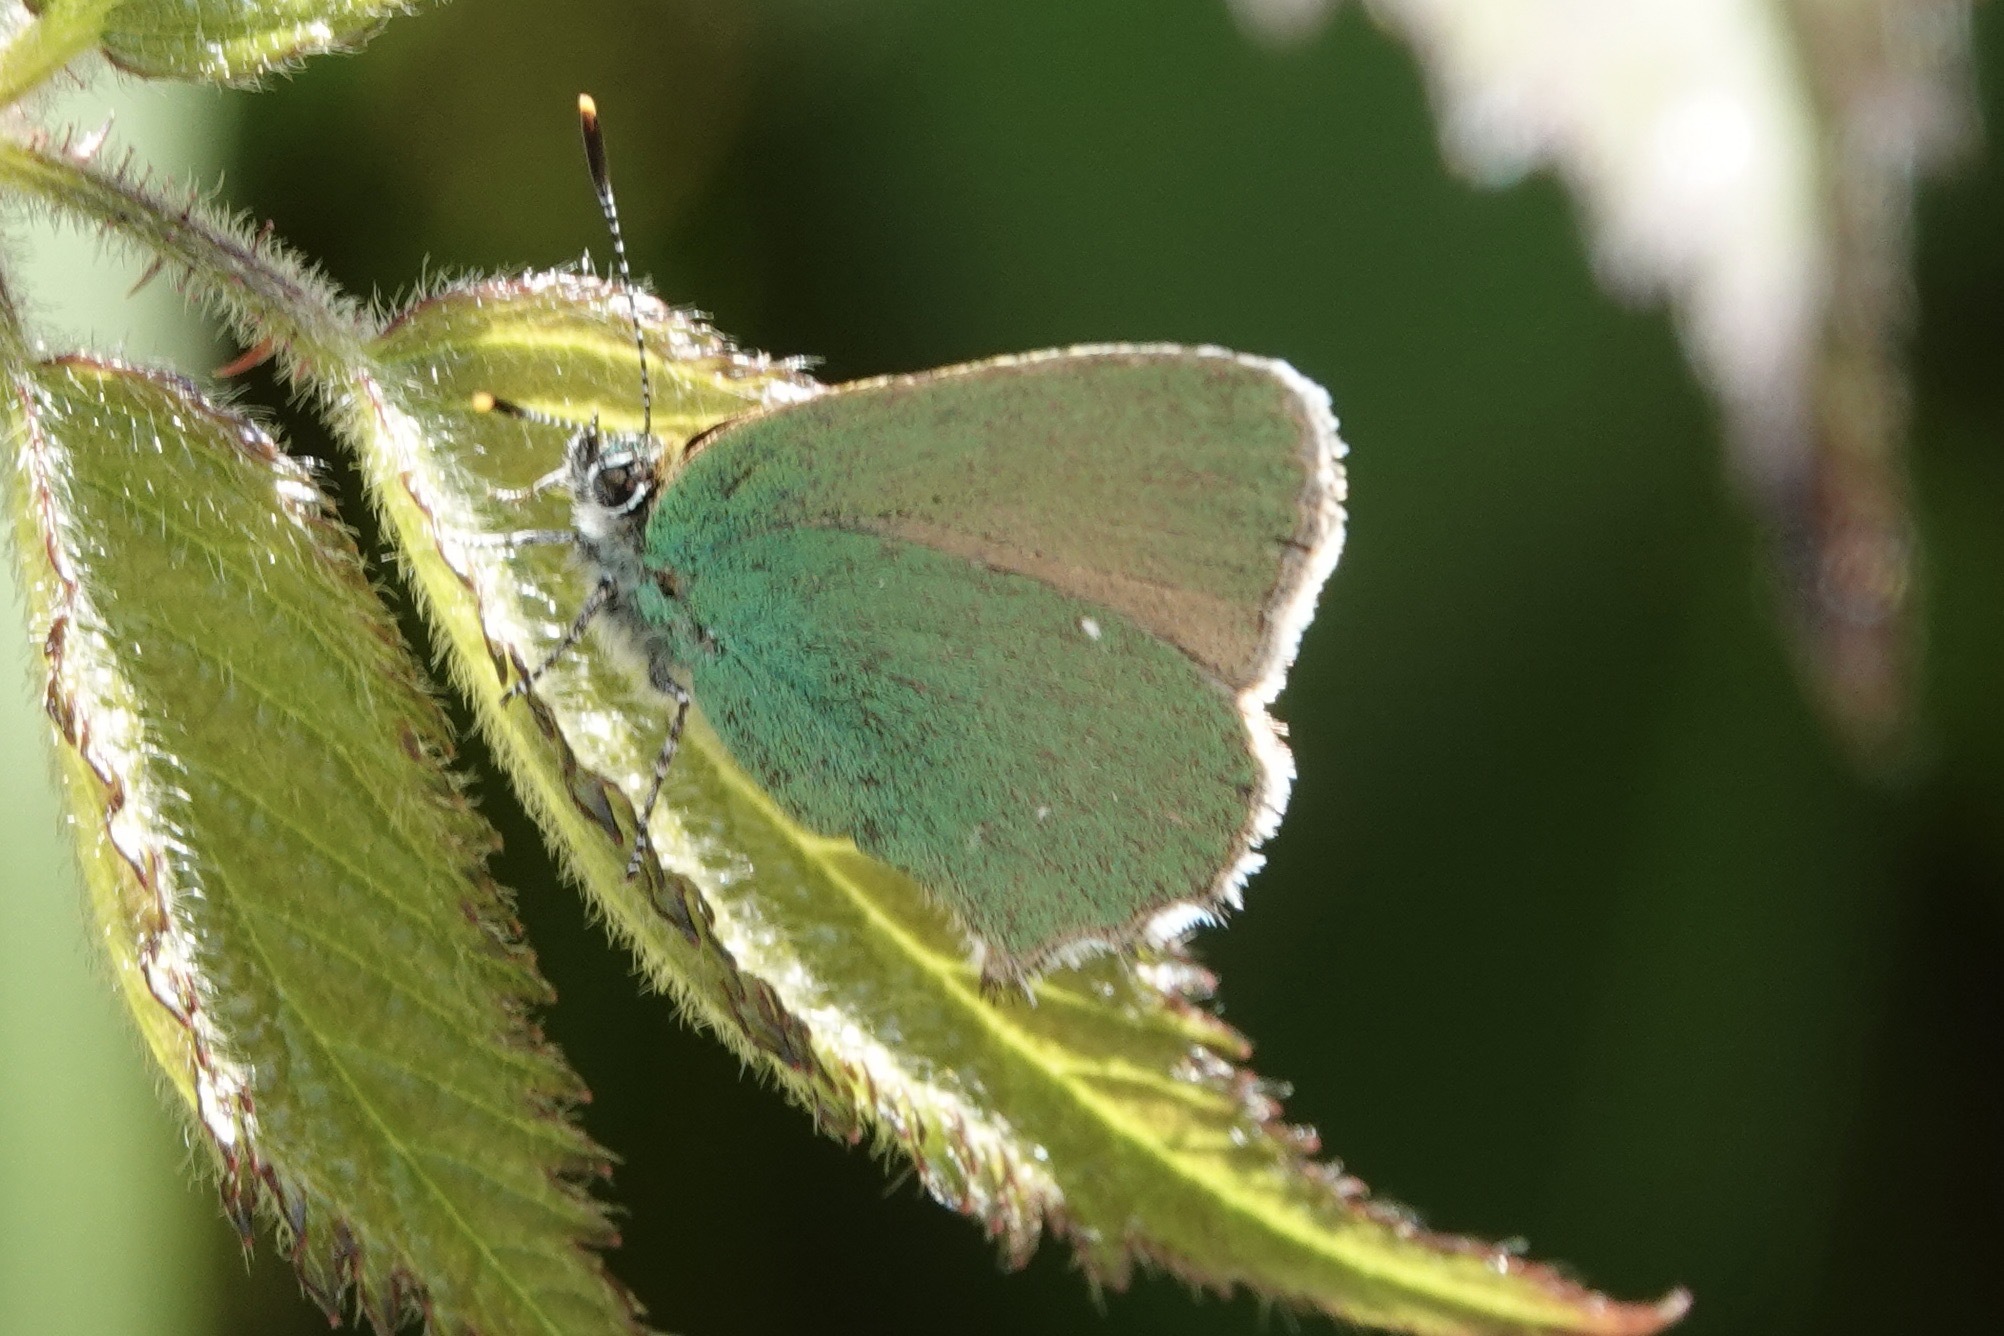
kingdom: Animalia
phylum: Arthropoda
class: Insecta
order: Lepidoptera
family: Lycaenidae
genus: Callophrys
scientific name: Callophrys rubi
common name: Green hairstreak
